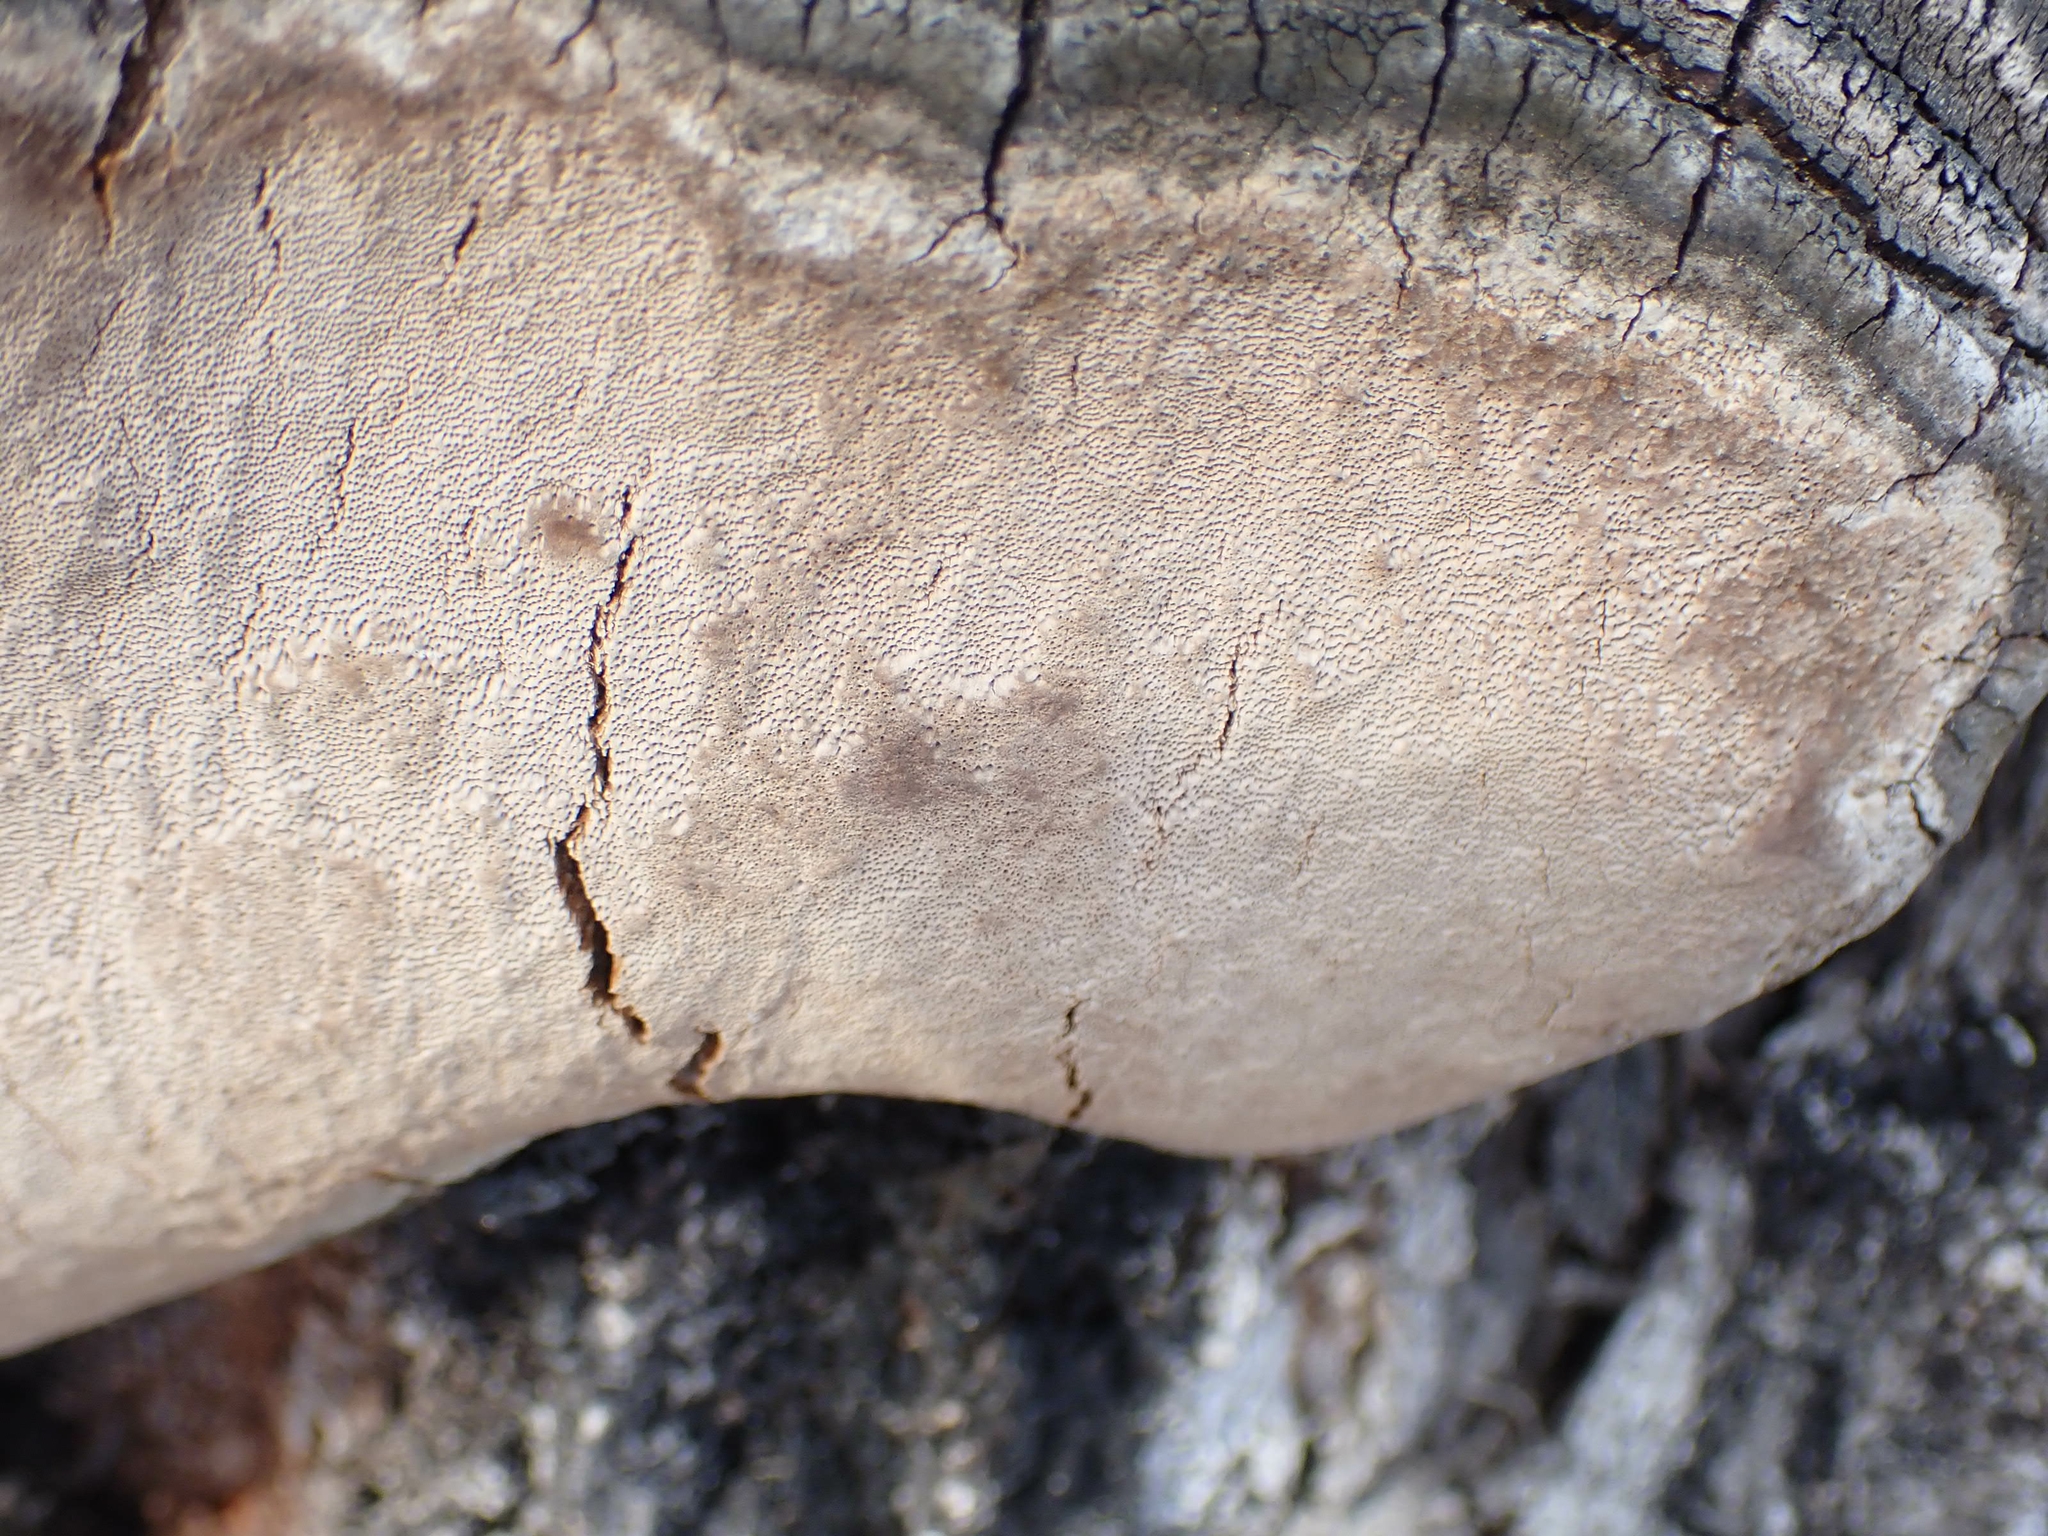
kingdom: Fungi
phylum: Basidiomycota
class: Agaricomycetes
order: Hymenochaetales
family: Hymenochaetaceae
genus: Phellinus
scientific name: Phellinus tremulae
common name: Aspen bracket
